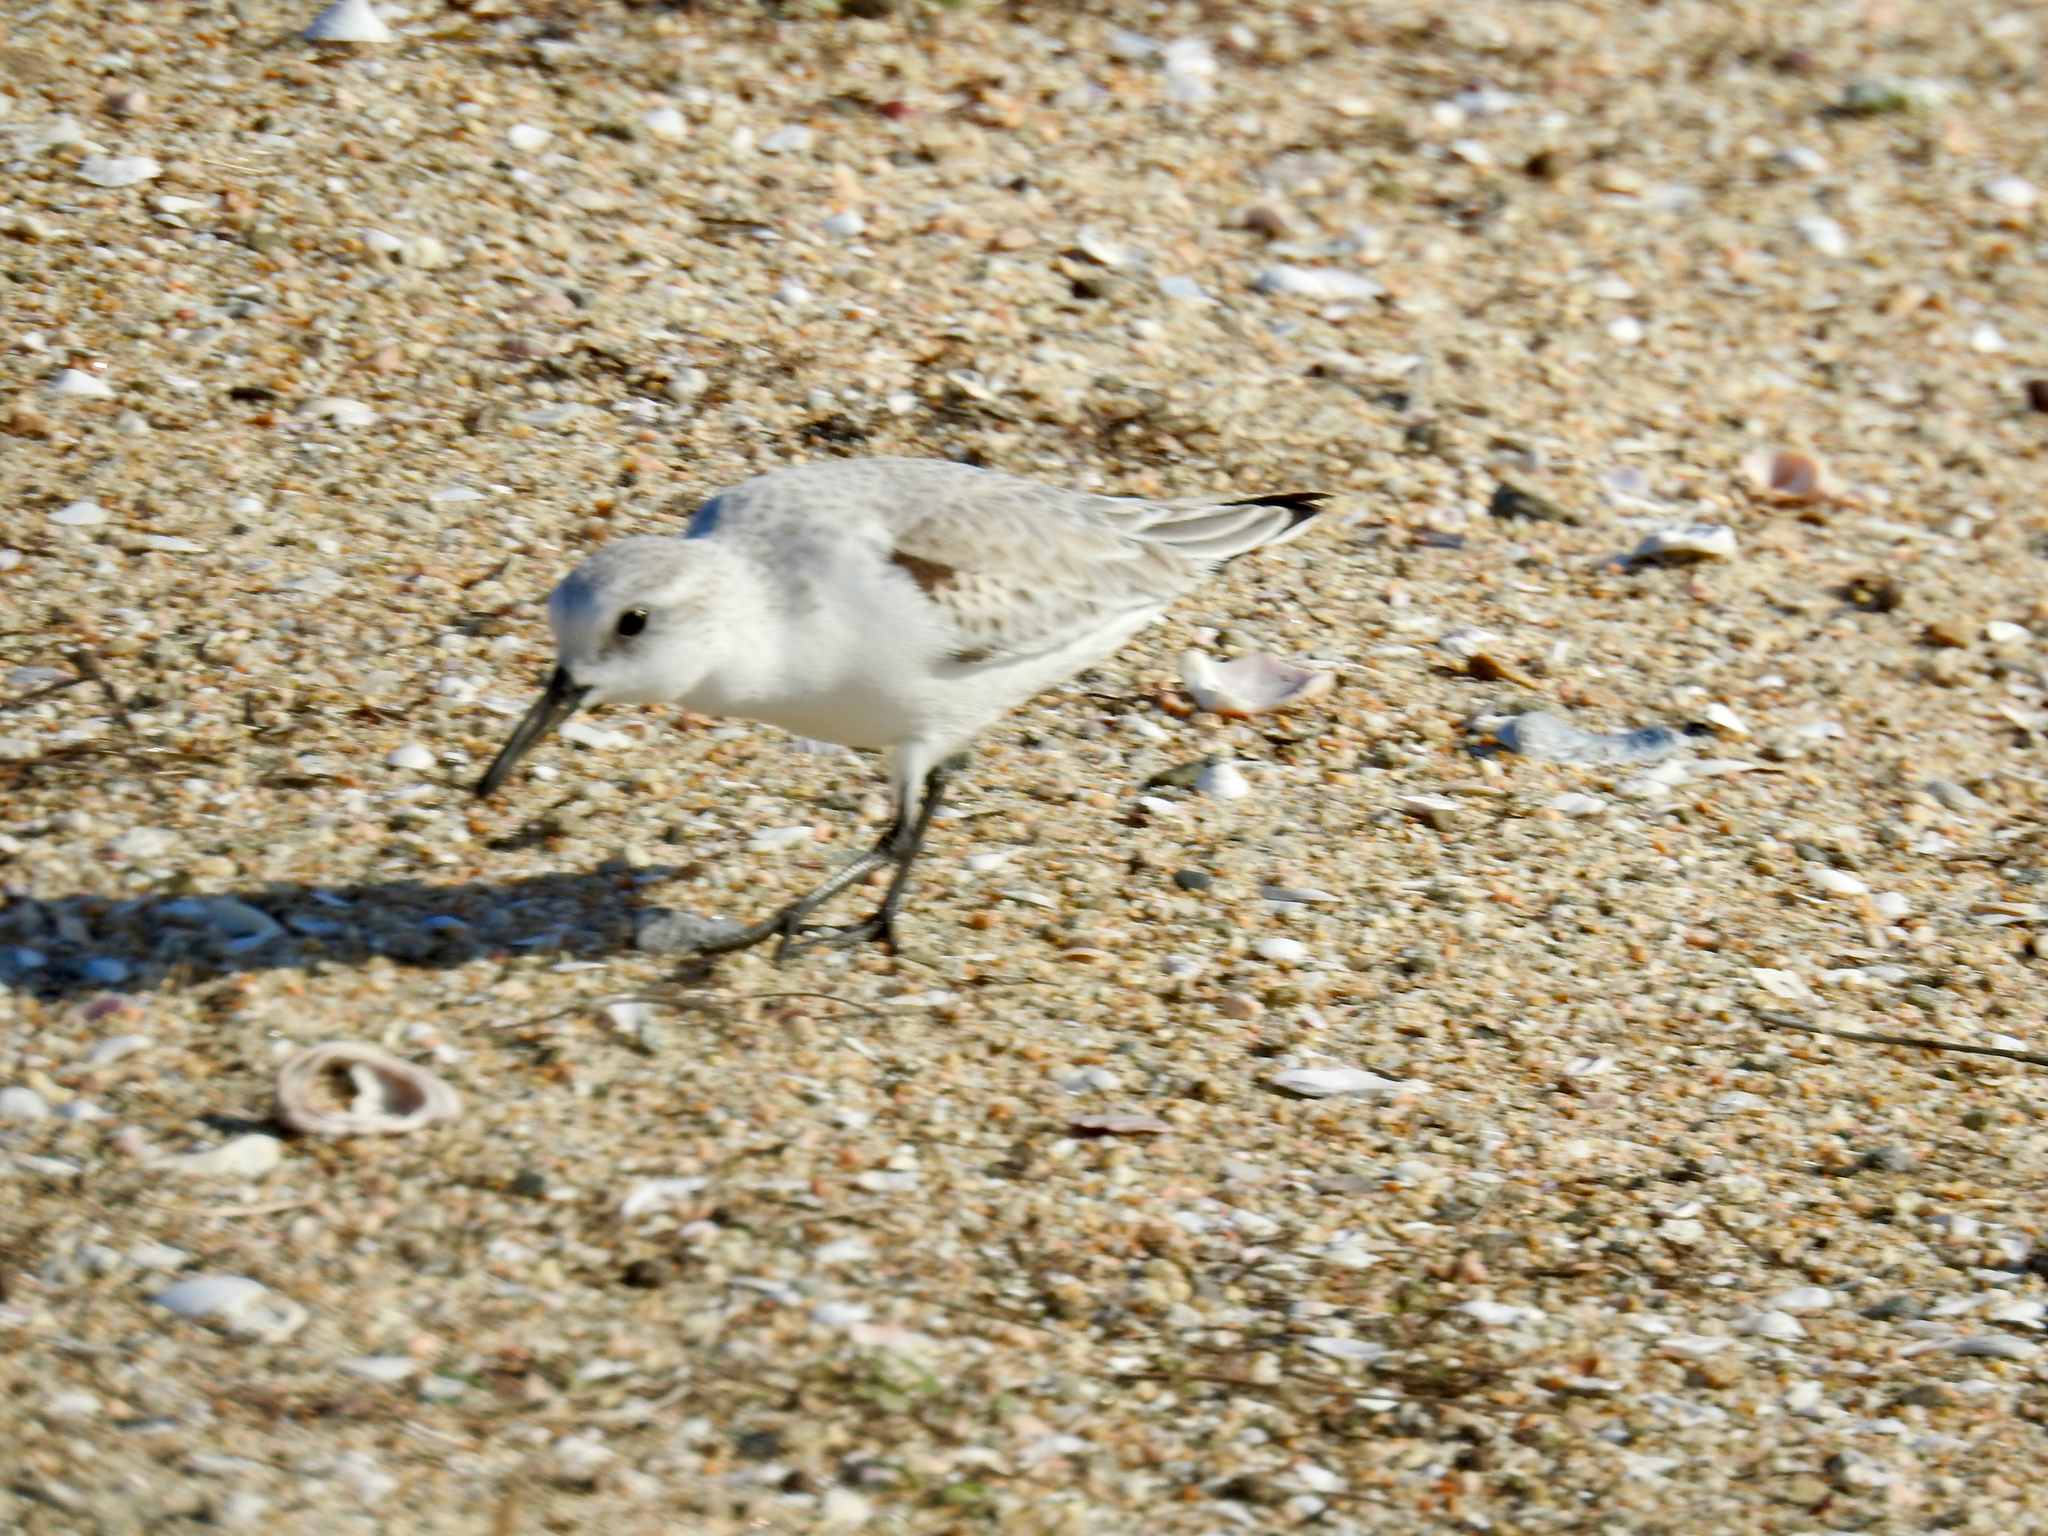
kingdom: Animalia
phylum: Chordata
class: Aves
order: Charadriiformes
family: Scolopacidae
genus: Calidris
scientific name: Calidris alba
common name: Sanderling
